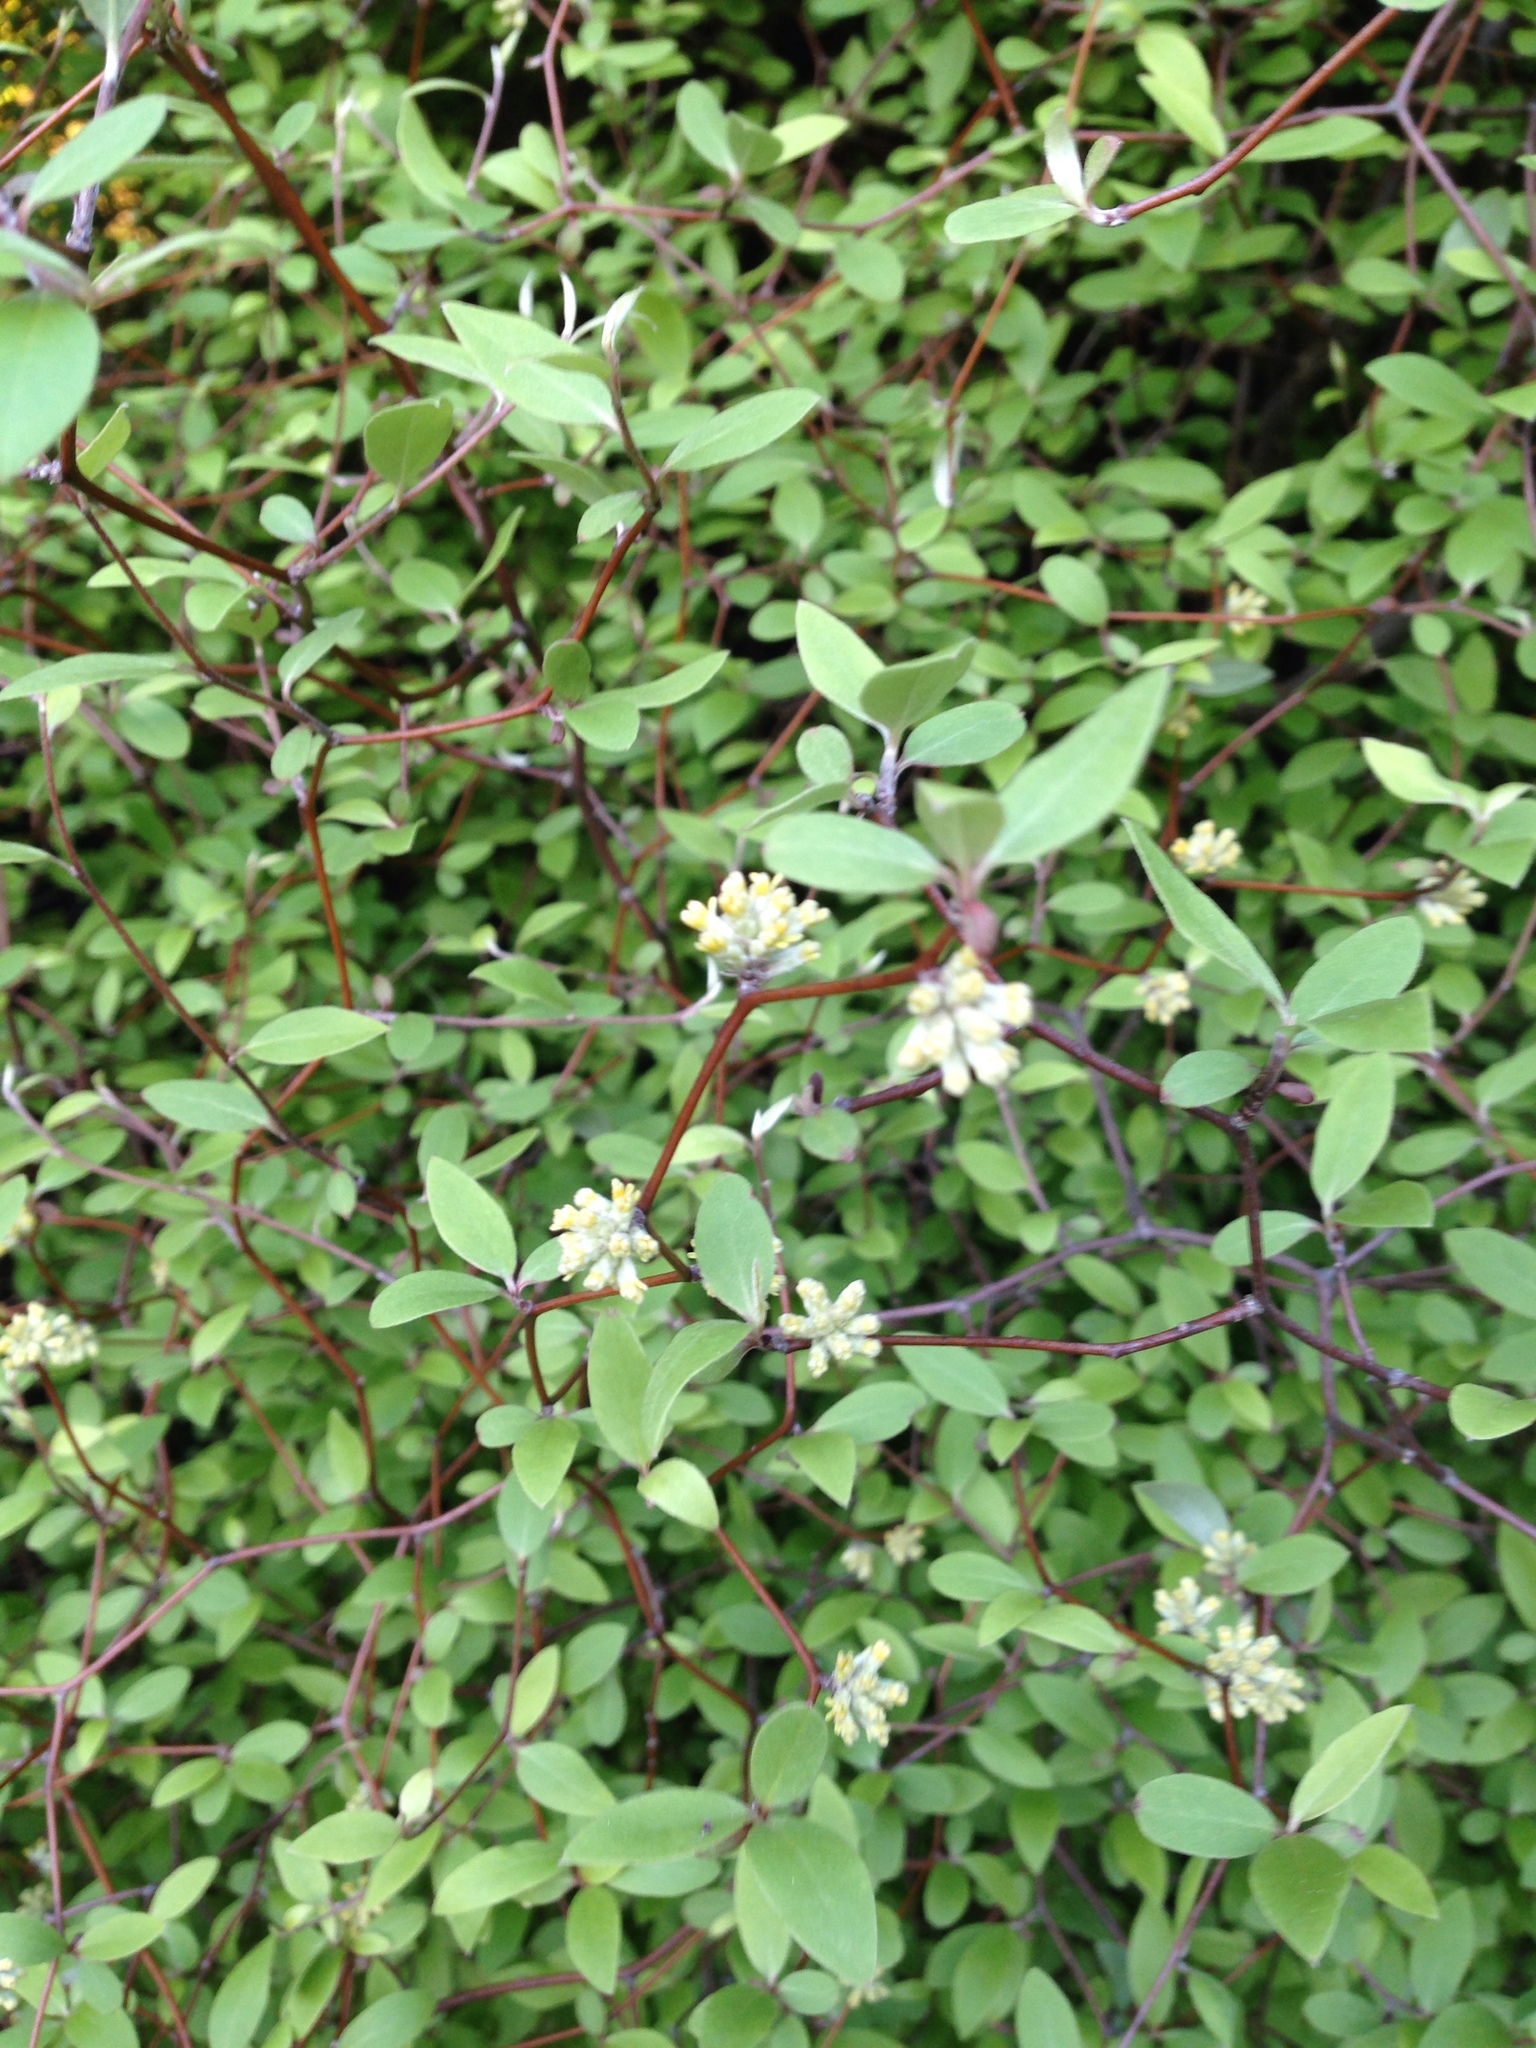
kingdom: Plantae
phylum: Tracheophyta
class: Magnoliopsida
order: Asterales
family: Asteraceae
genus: Olearia
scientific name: Olearia fragrantissima
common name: Fragrant tree daisy
